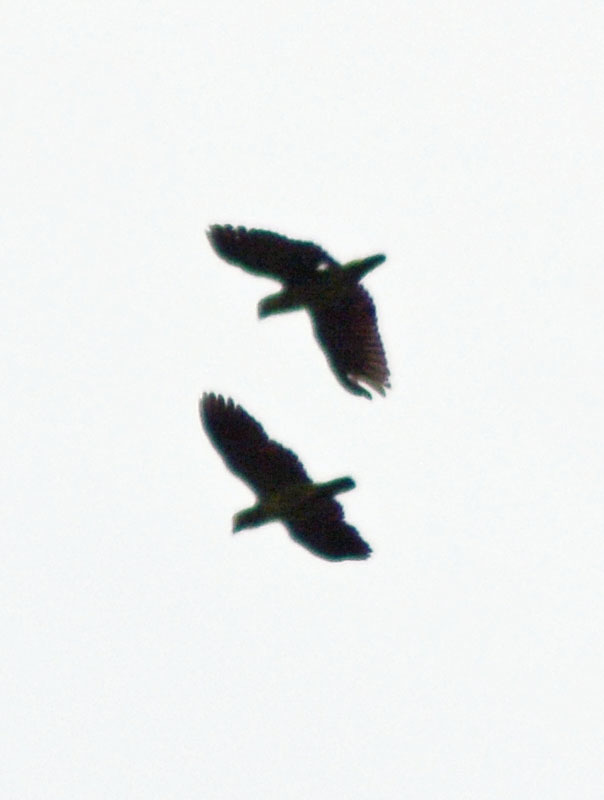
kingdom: Animalia
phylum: Chordata
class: Aves
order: Psittaciformes
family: Psittacidae
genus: Amazona
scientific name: Amazona albifrons
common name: White-fronted amazon
